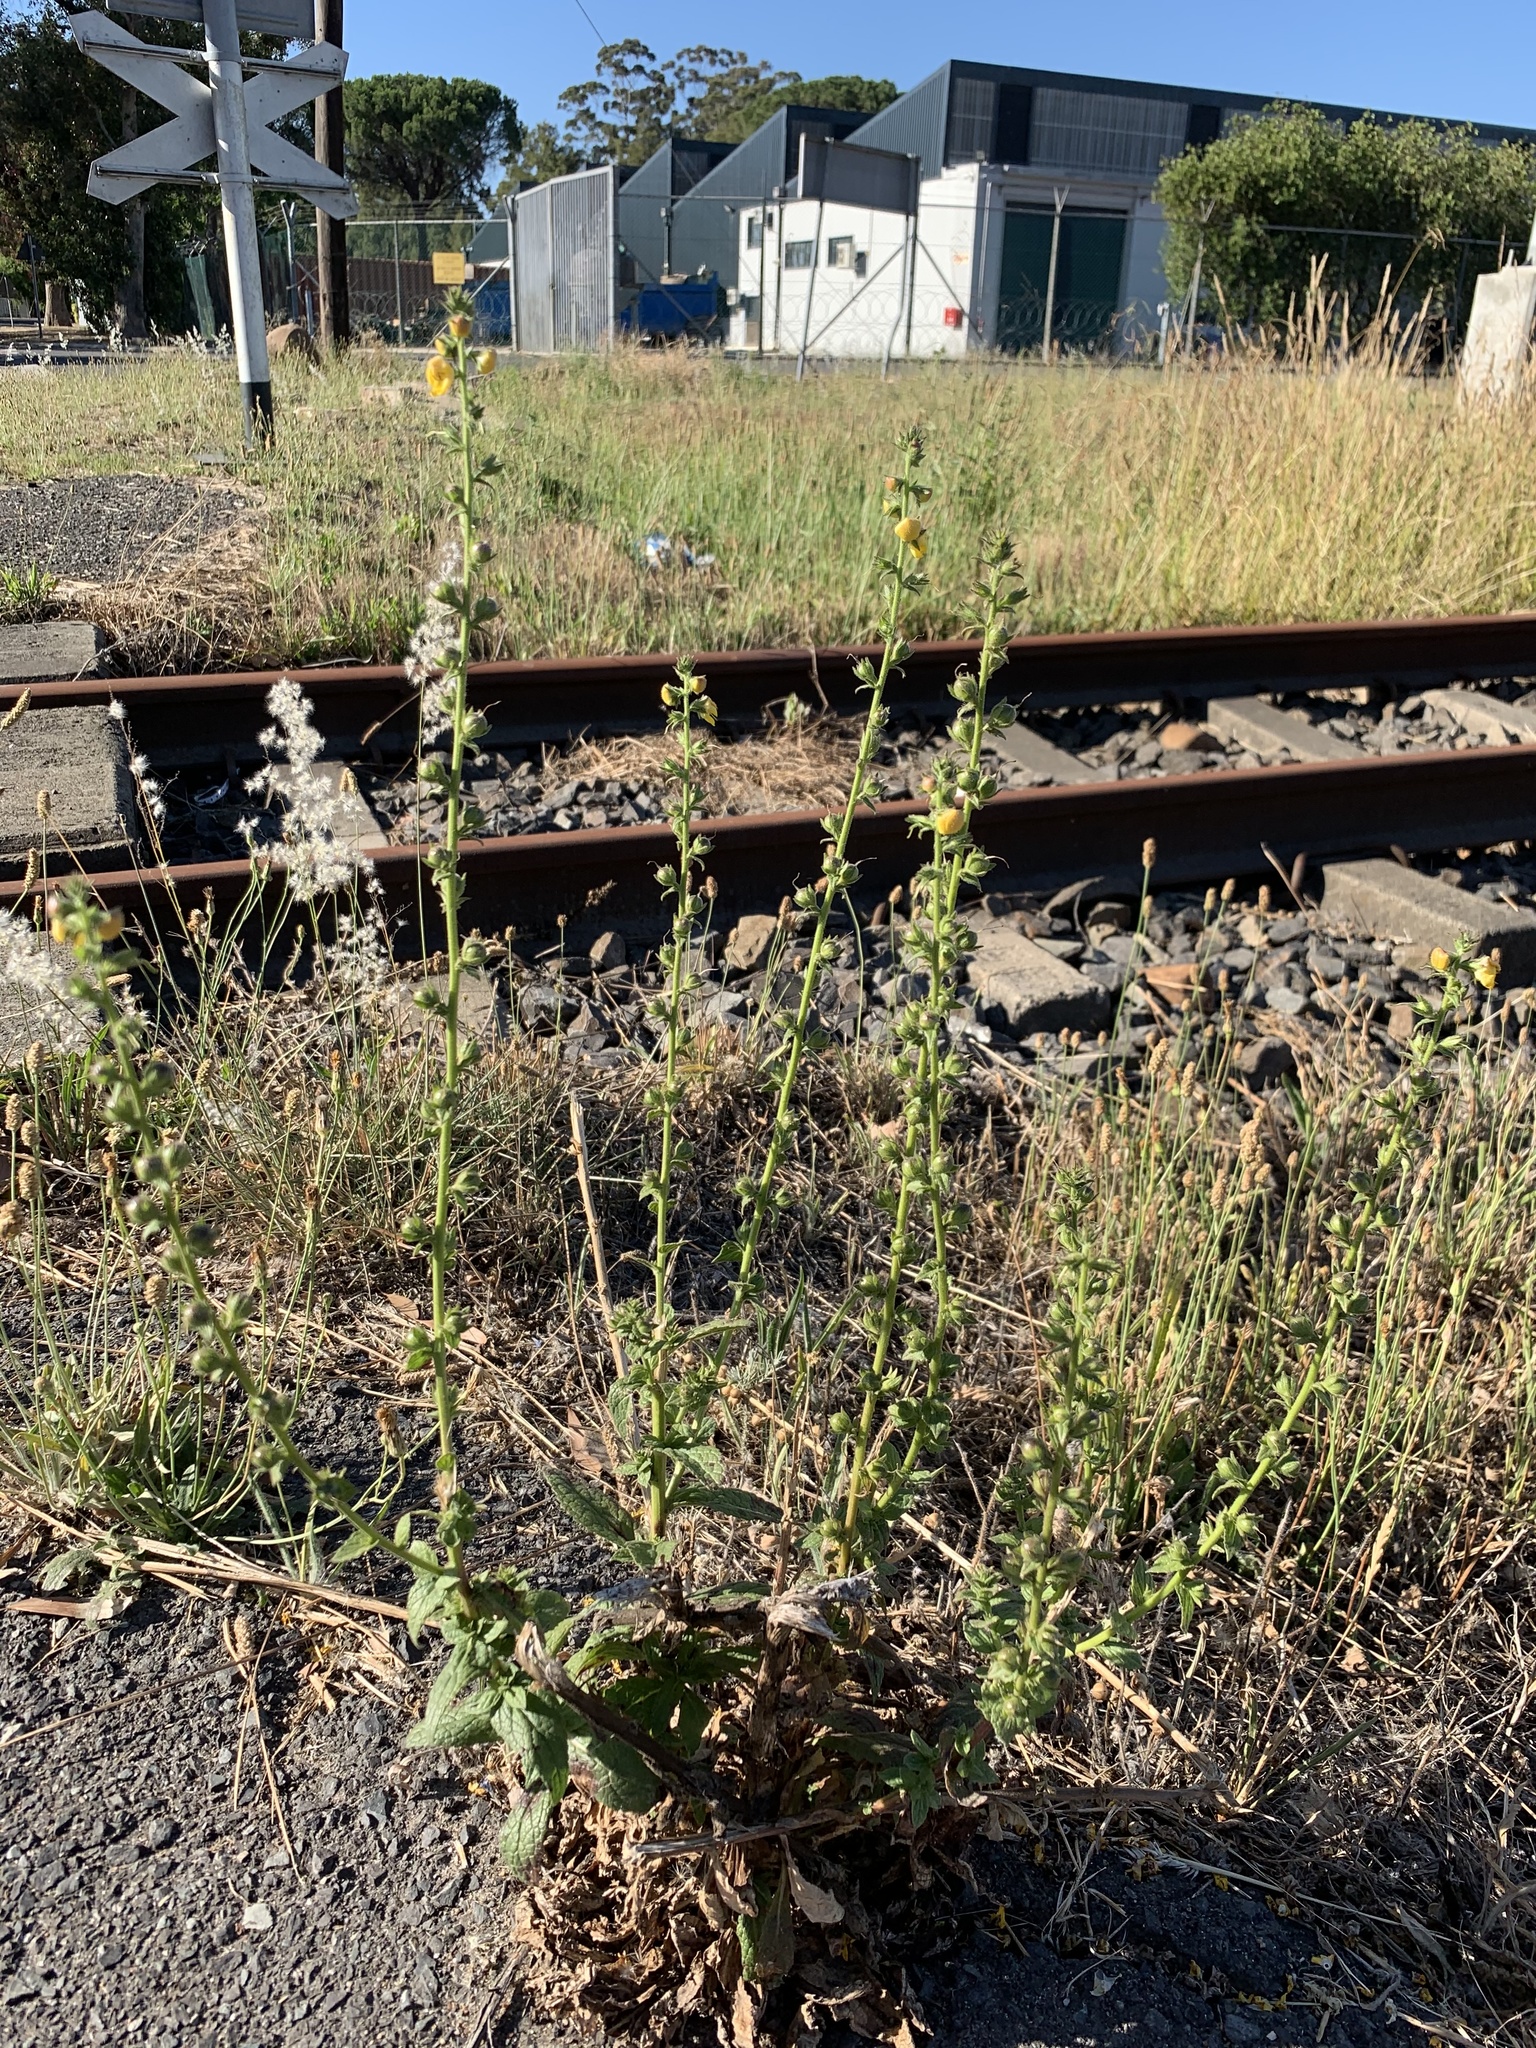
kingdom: Plantae
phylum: Tracheophyta
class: Magnoliopsida
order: Lamiales
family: Scrophulariaceae
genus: Verbascum
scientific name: Verbascum virgatum
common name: Twiggy mullein
